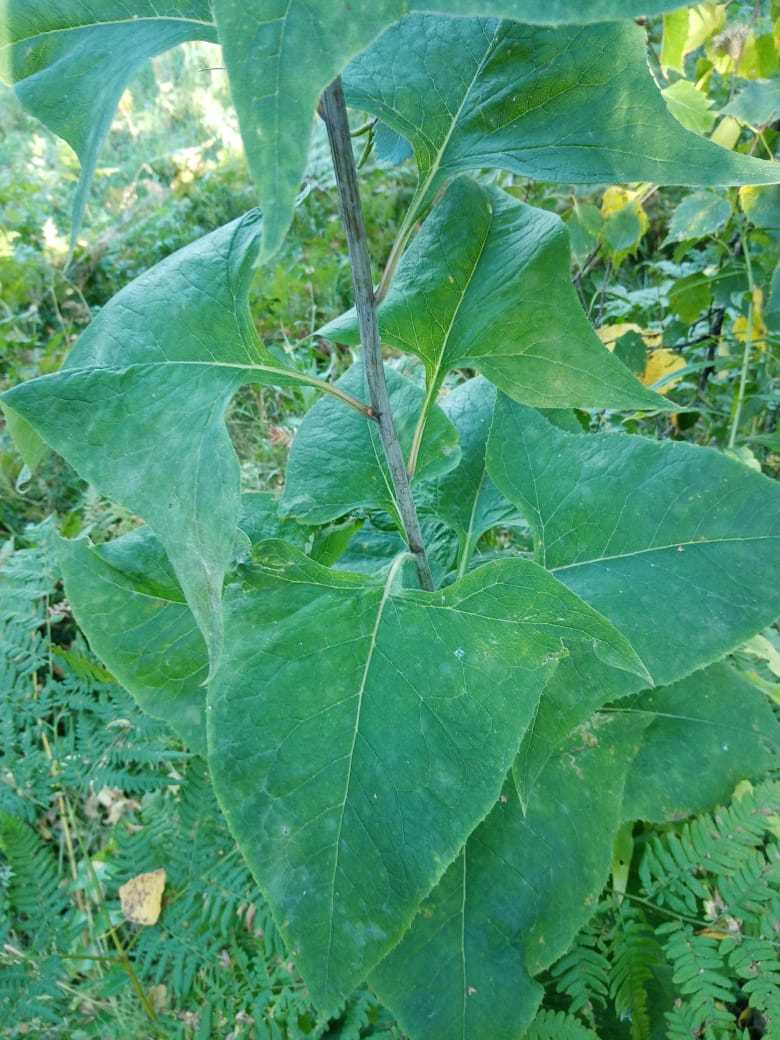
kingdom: Plantae
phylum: Tracheophyta
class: Magnoliopsida
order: Asterales
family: Asteraceae
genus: Parasenecio
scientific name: Parasenecio hastatus
